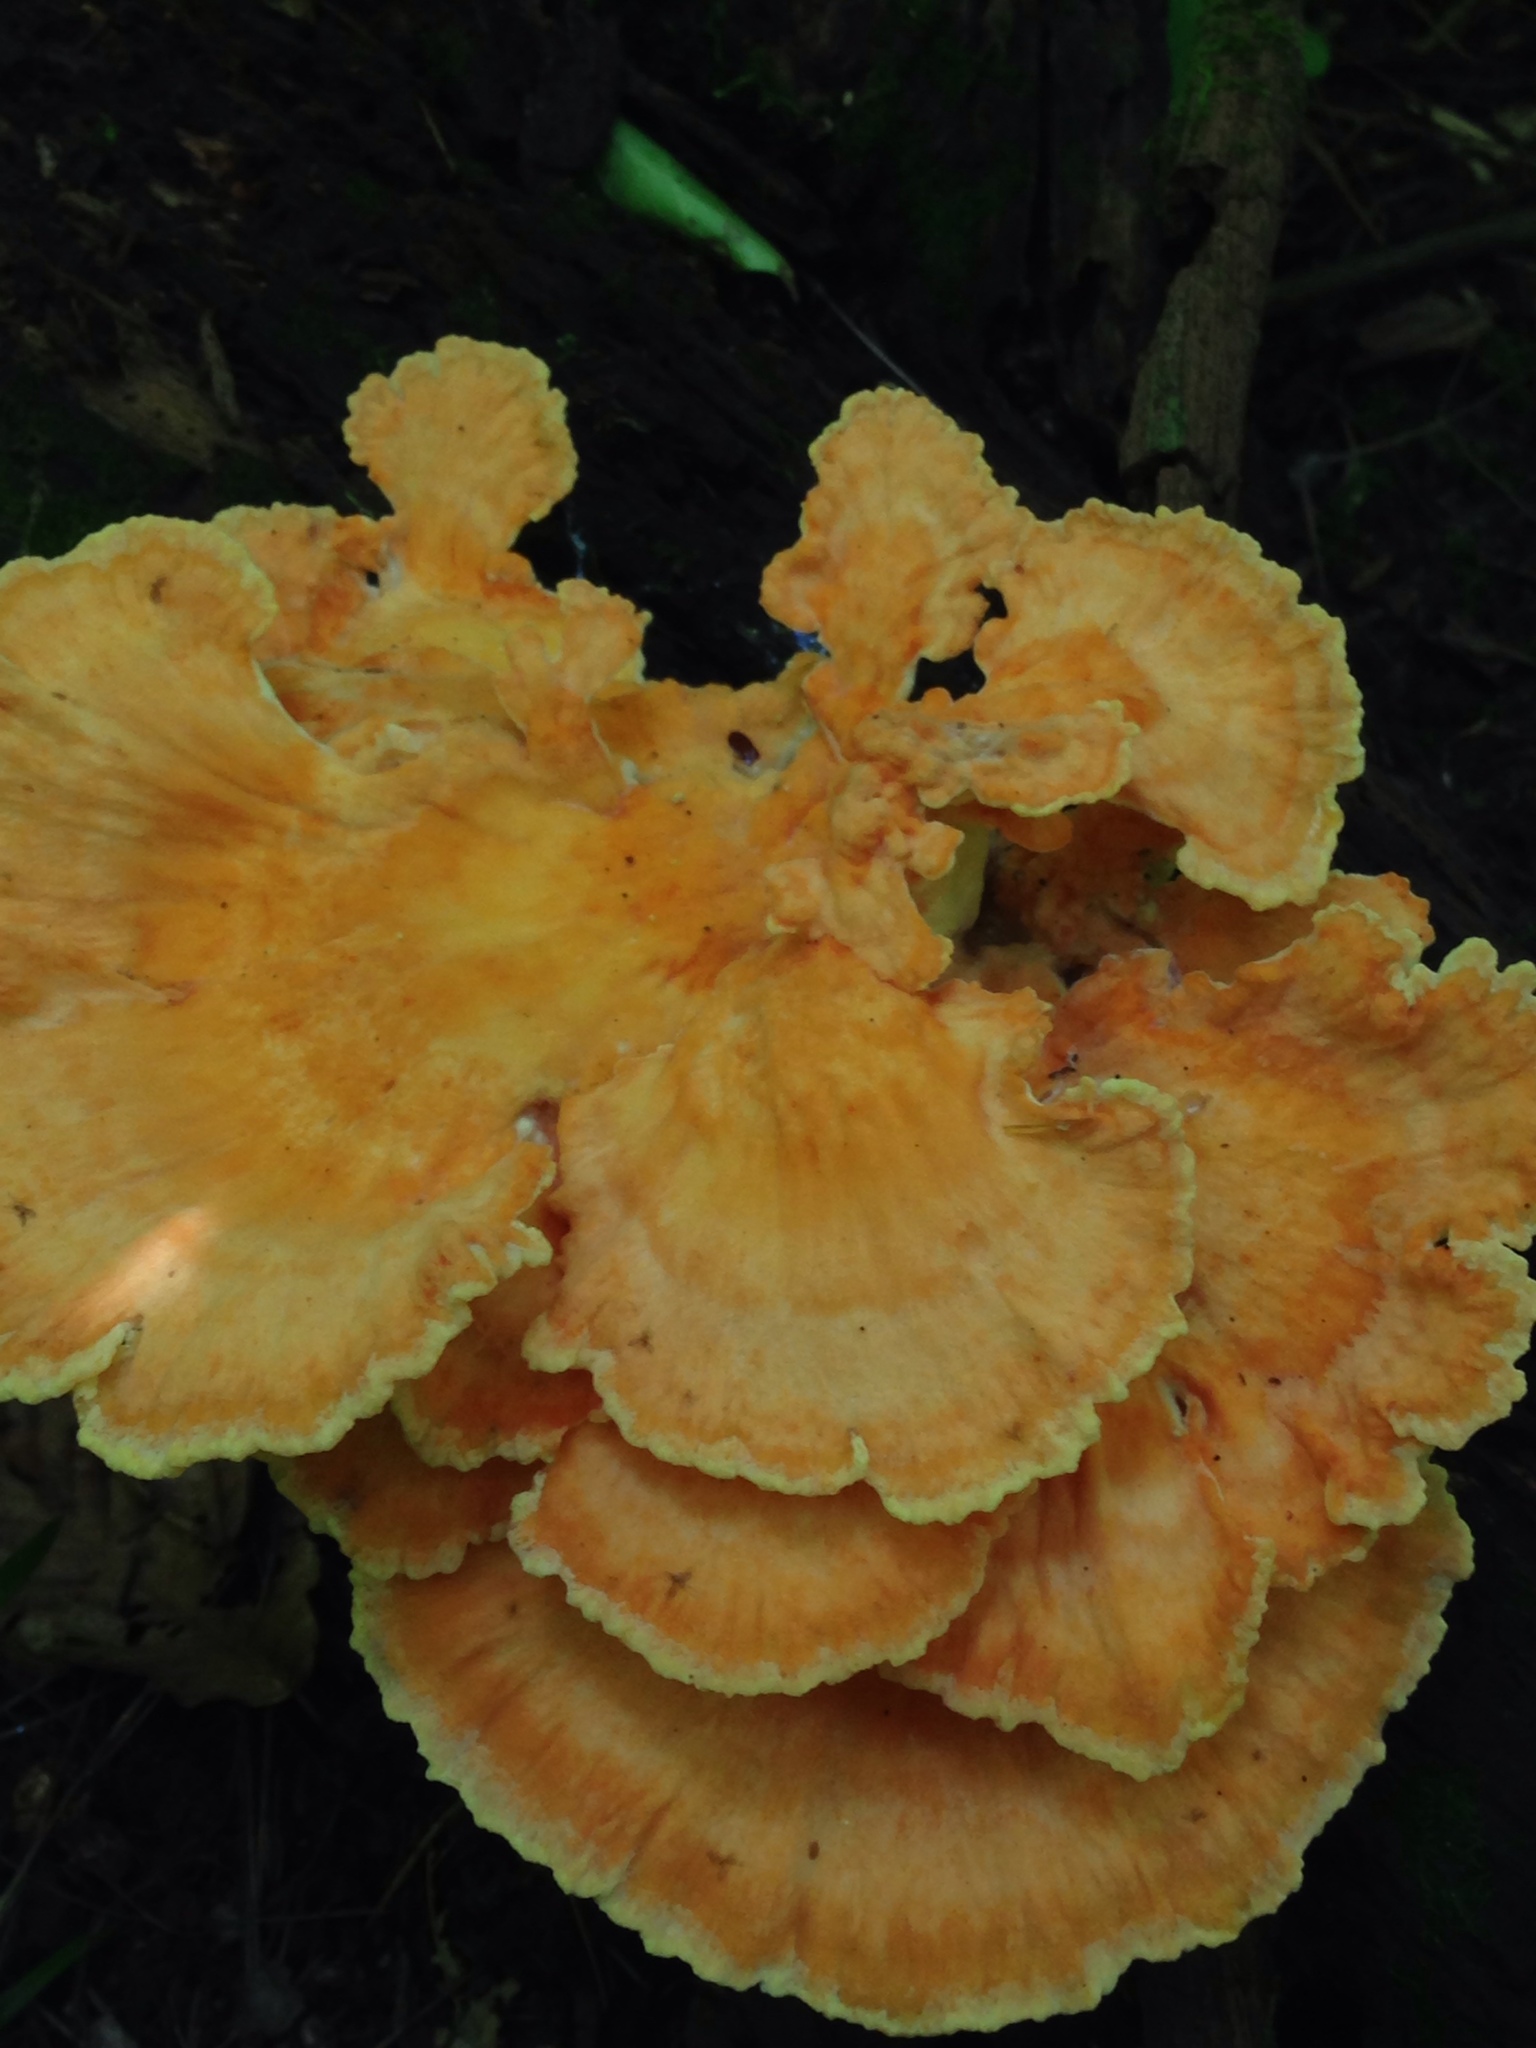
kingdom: Fungi
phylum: Basidiomycota
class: Agaricomycetes
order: Polyporales
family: Laetiporaceae
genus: Laetiporus
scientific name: Laetiporus sulphureus
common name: Chicken of the woods
